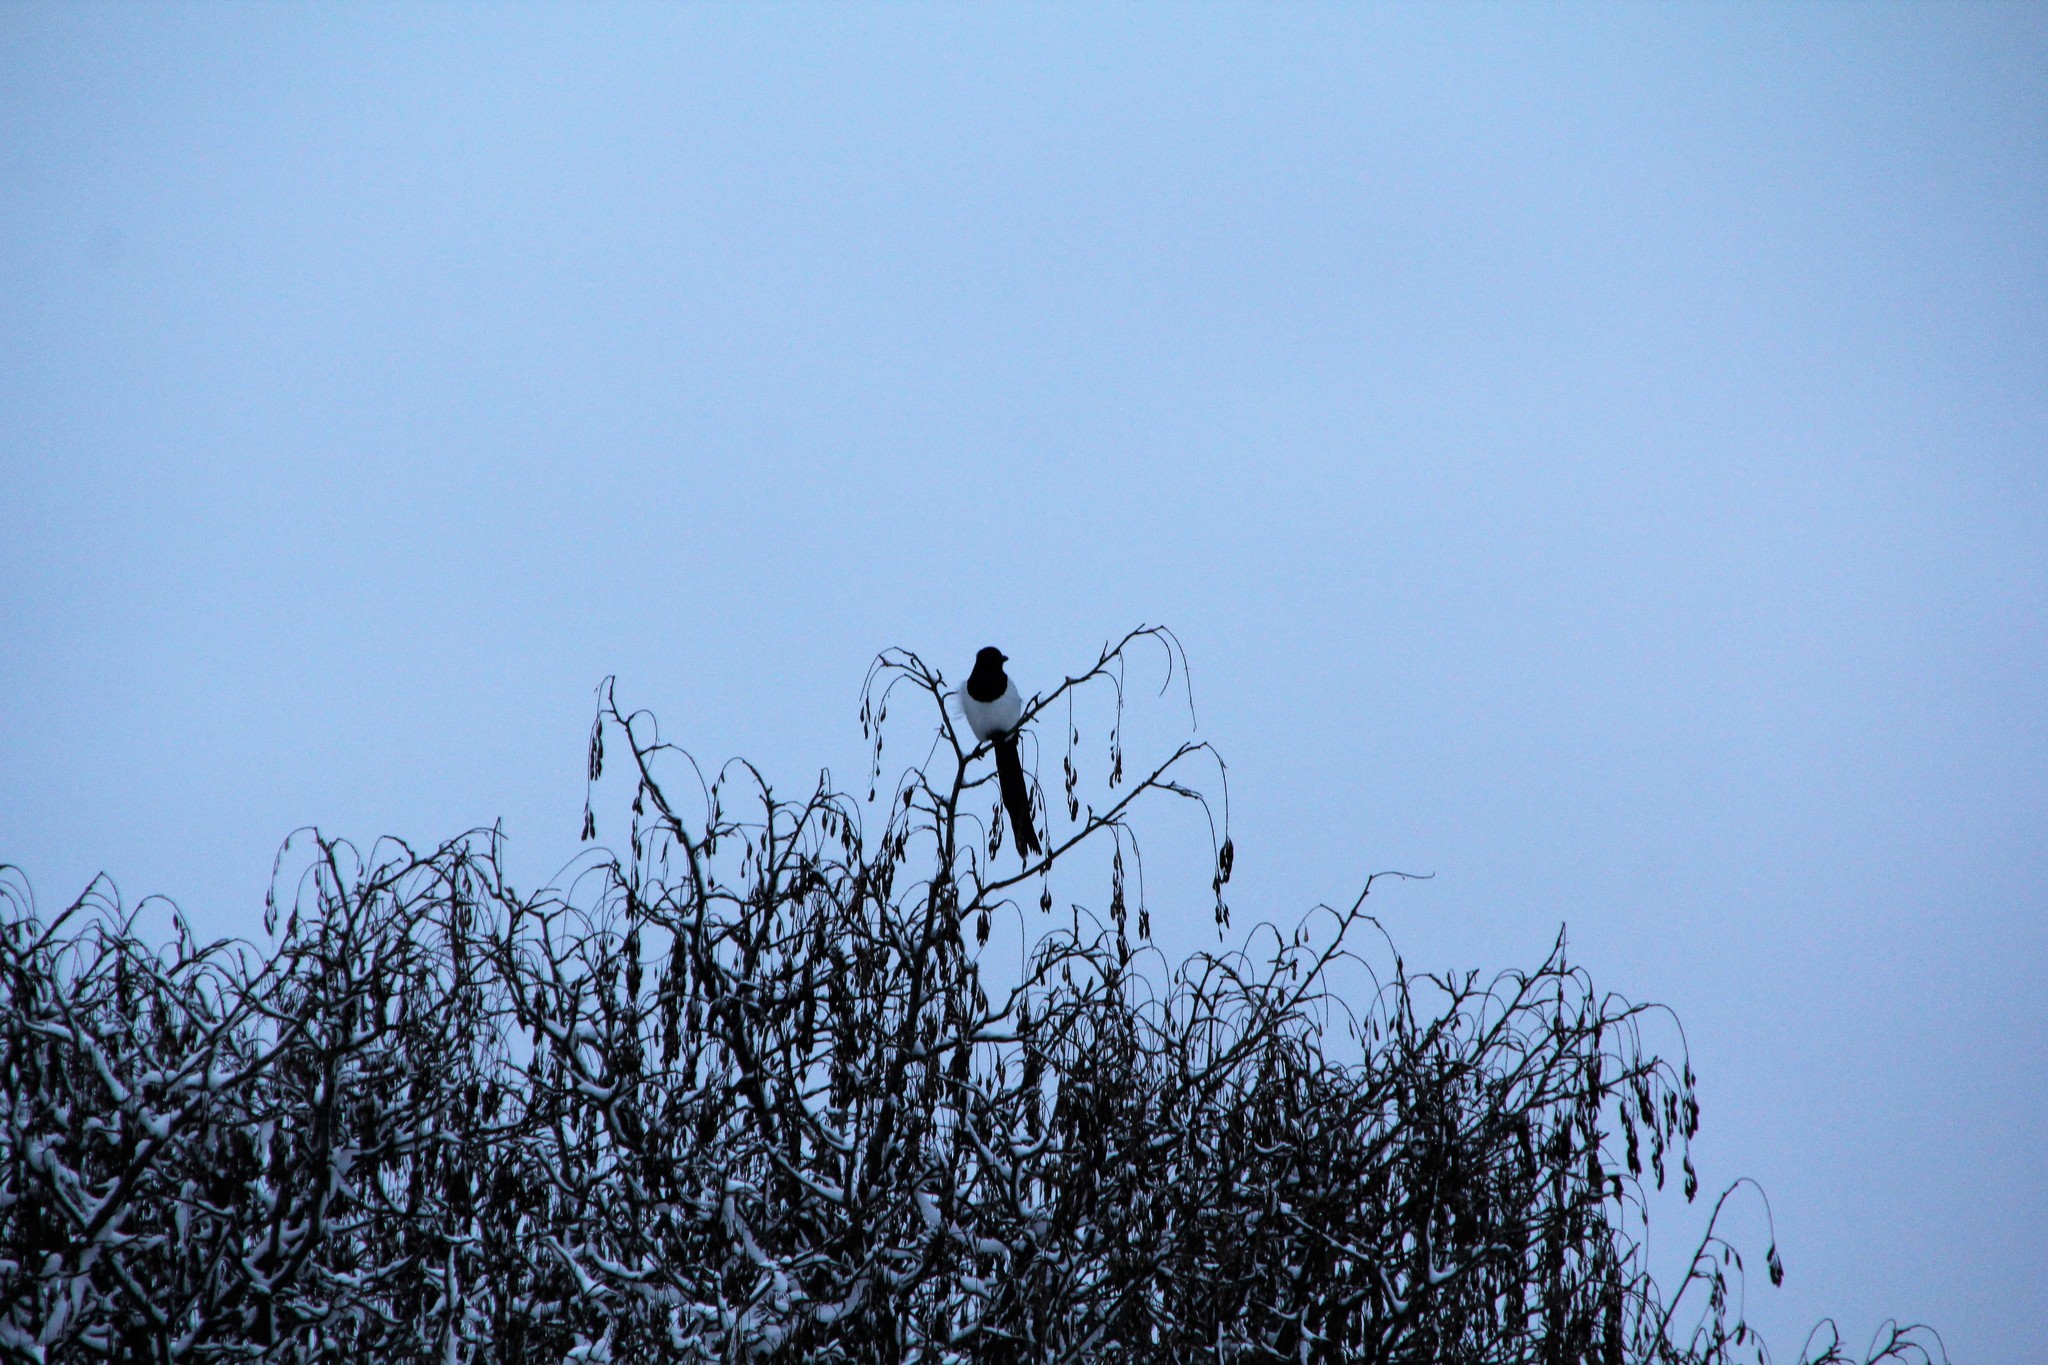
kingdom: Animalia
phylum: Chordata
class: Aves
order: Passeriformes
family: Corvidae
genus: Pica
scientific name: Pica pica
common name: Eurasian magpie
